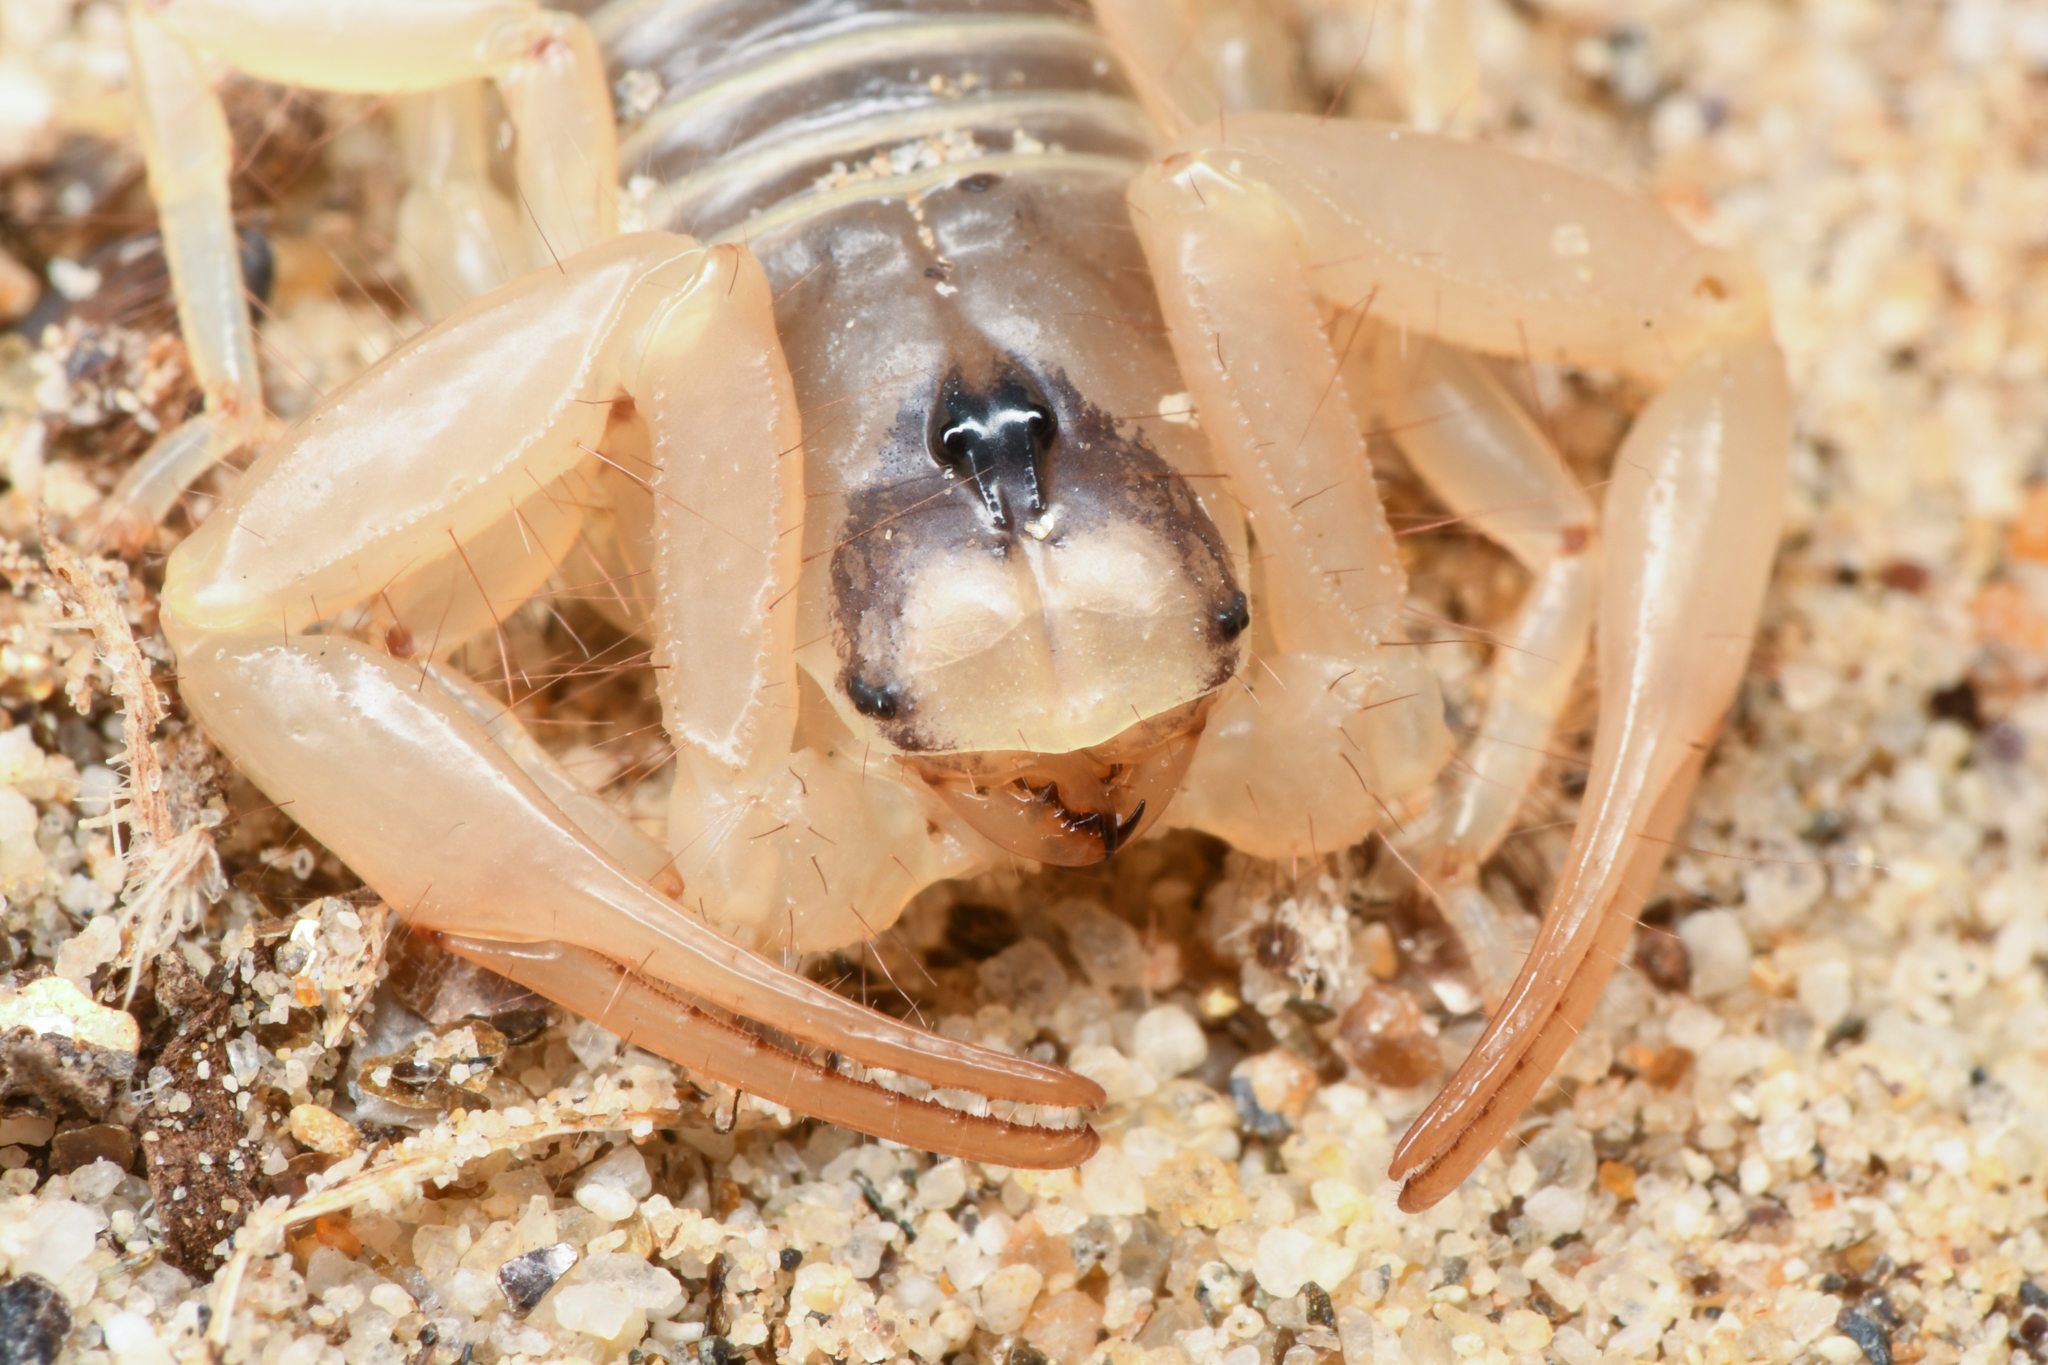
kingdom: Animalia
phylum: Arthropoda
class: Arachnida
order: Scorpiones
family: Hadruridae
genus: Hadrurus
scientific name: Hadrurus arizonensis
